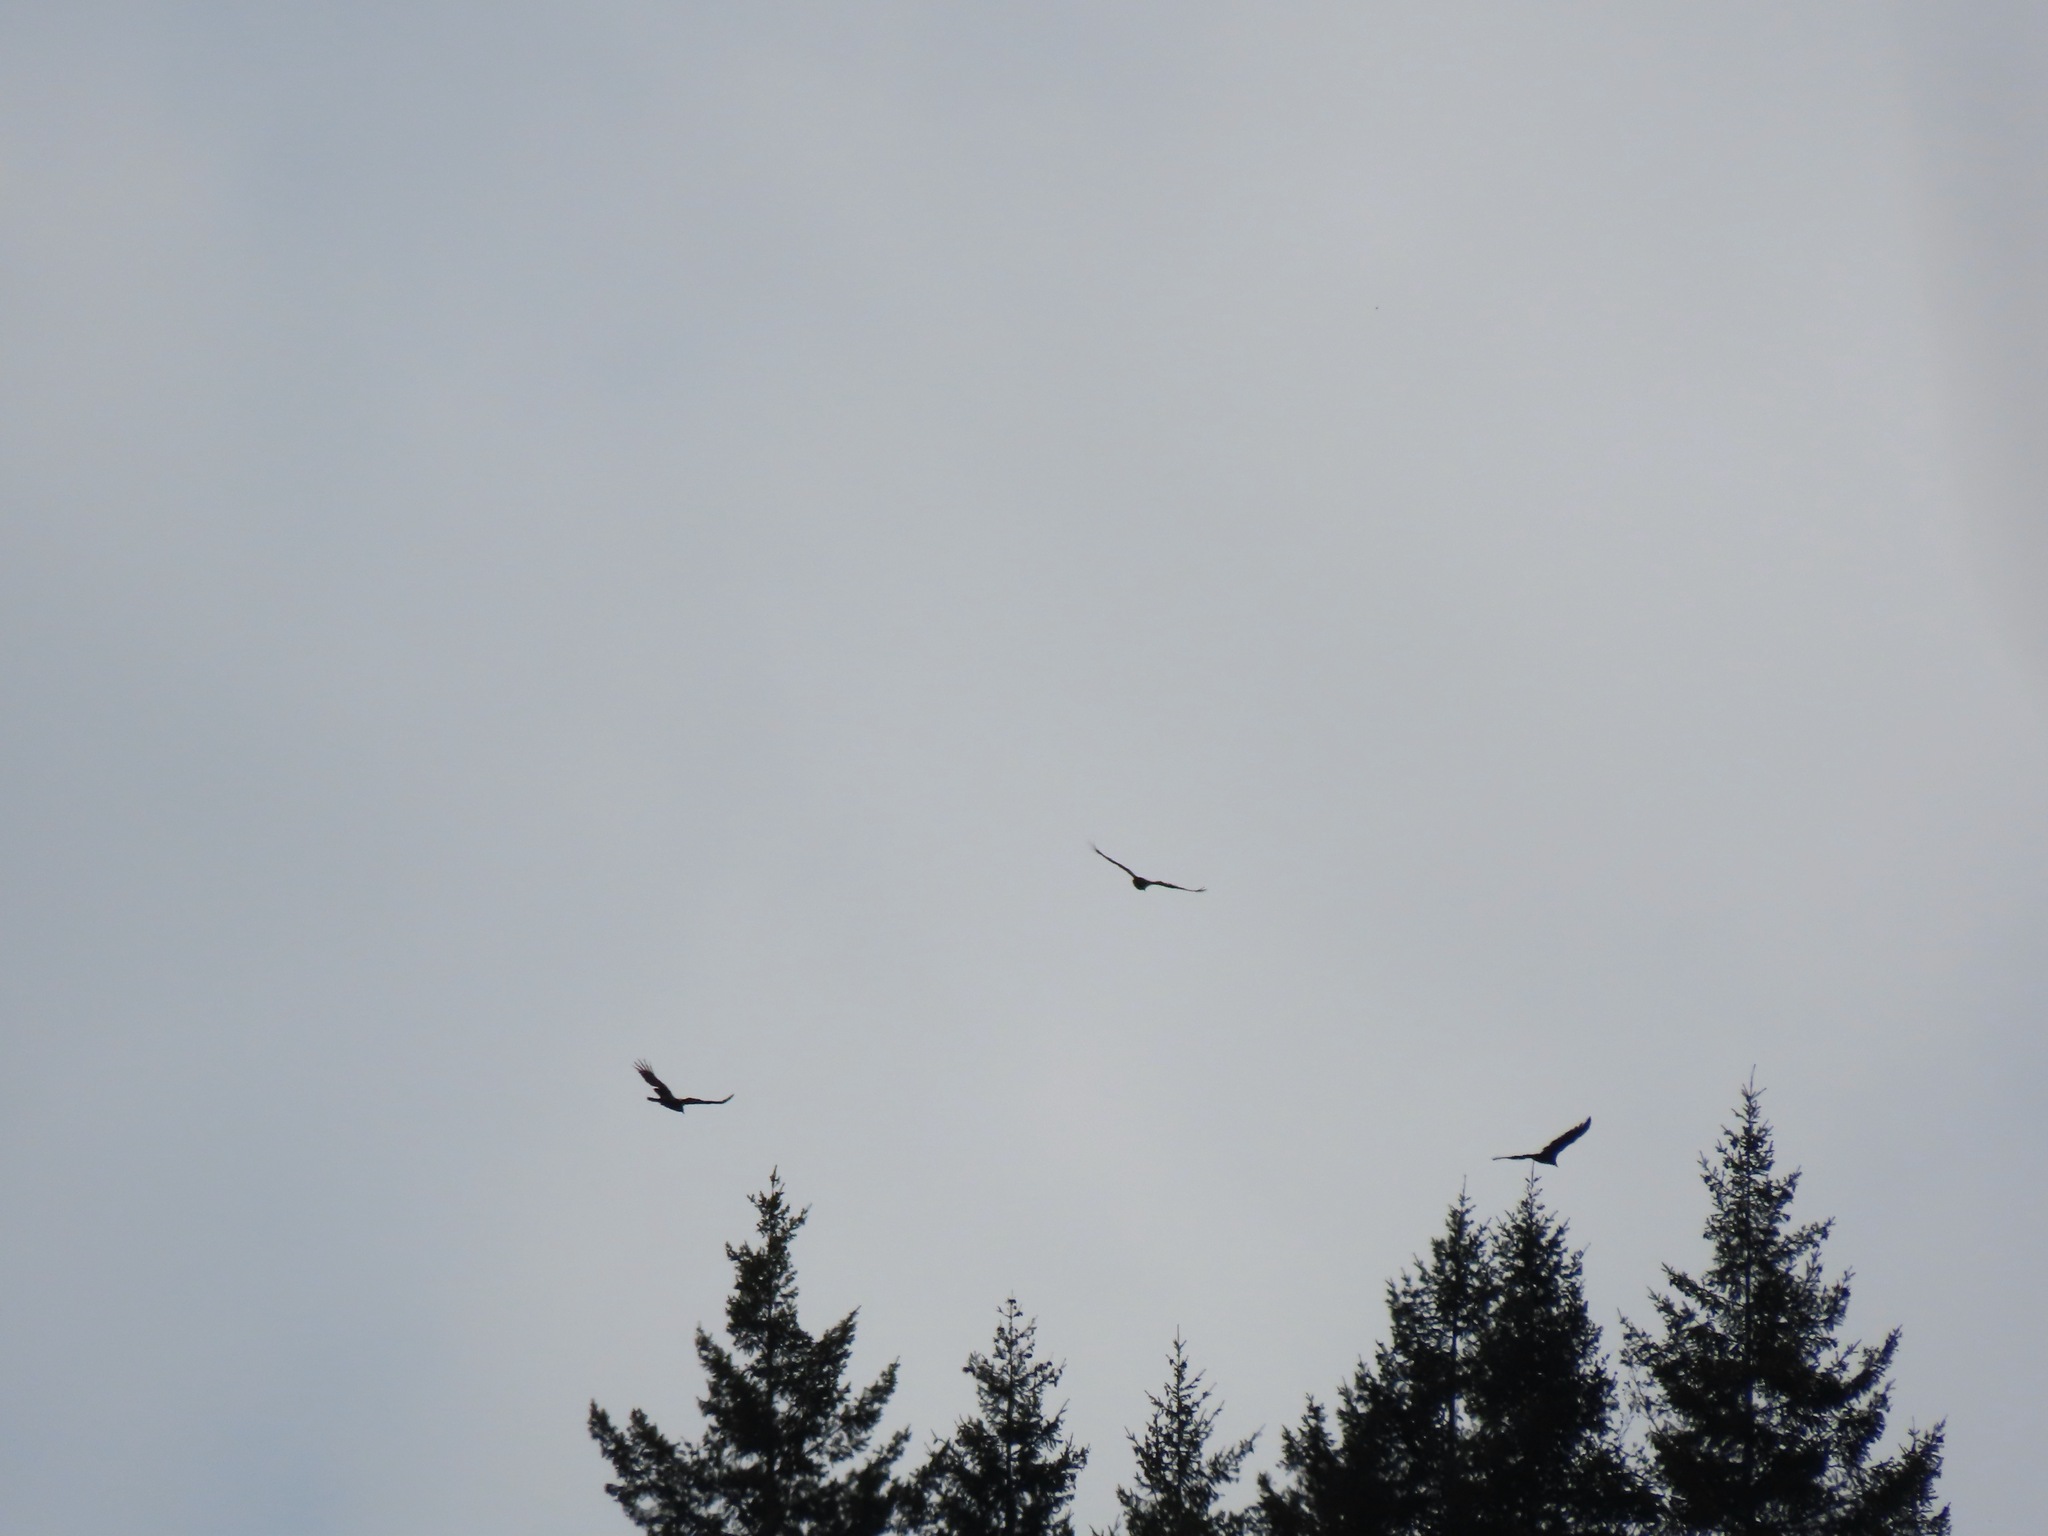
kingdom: Animalia
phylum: Chordata
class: Aves
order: Accipitriformes
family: Cathartidae
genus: Cathartes
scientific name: Cathartes aura
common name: Turkey vulture
